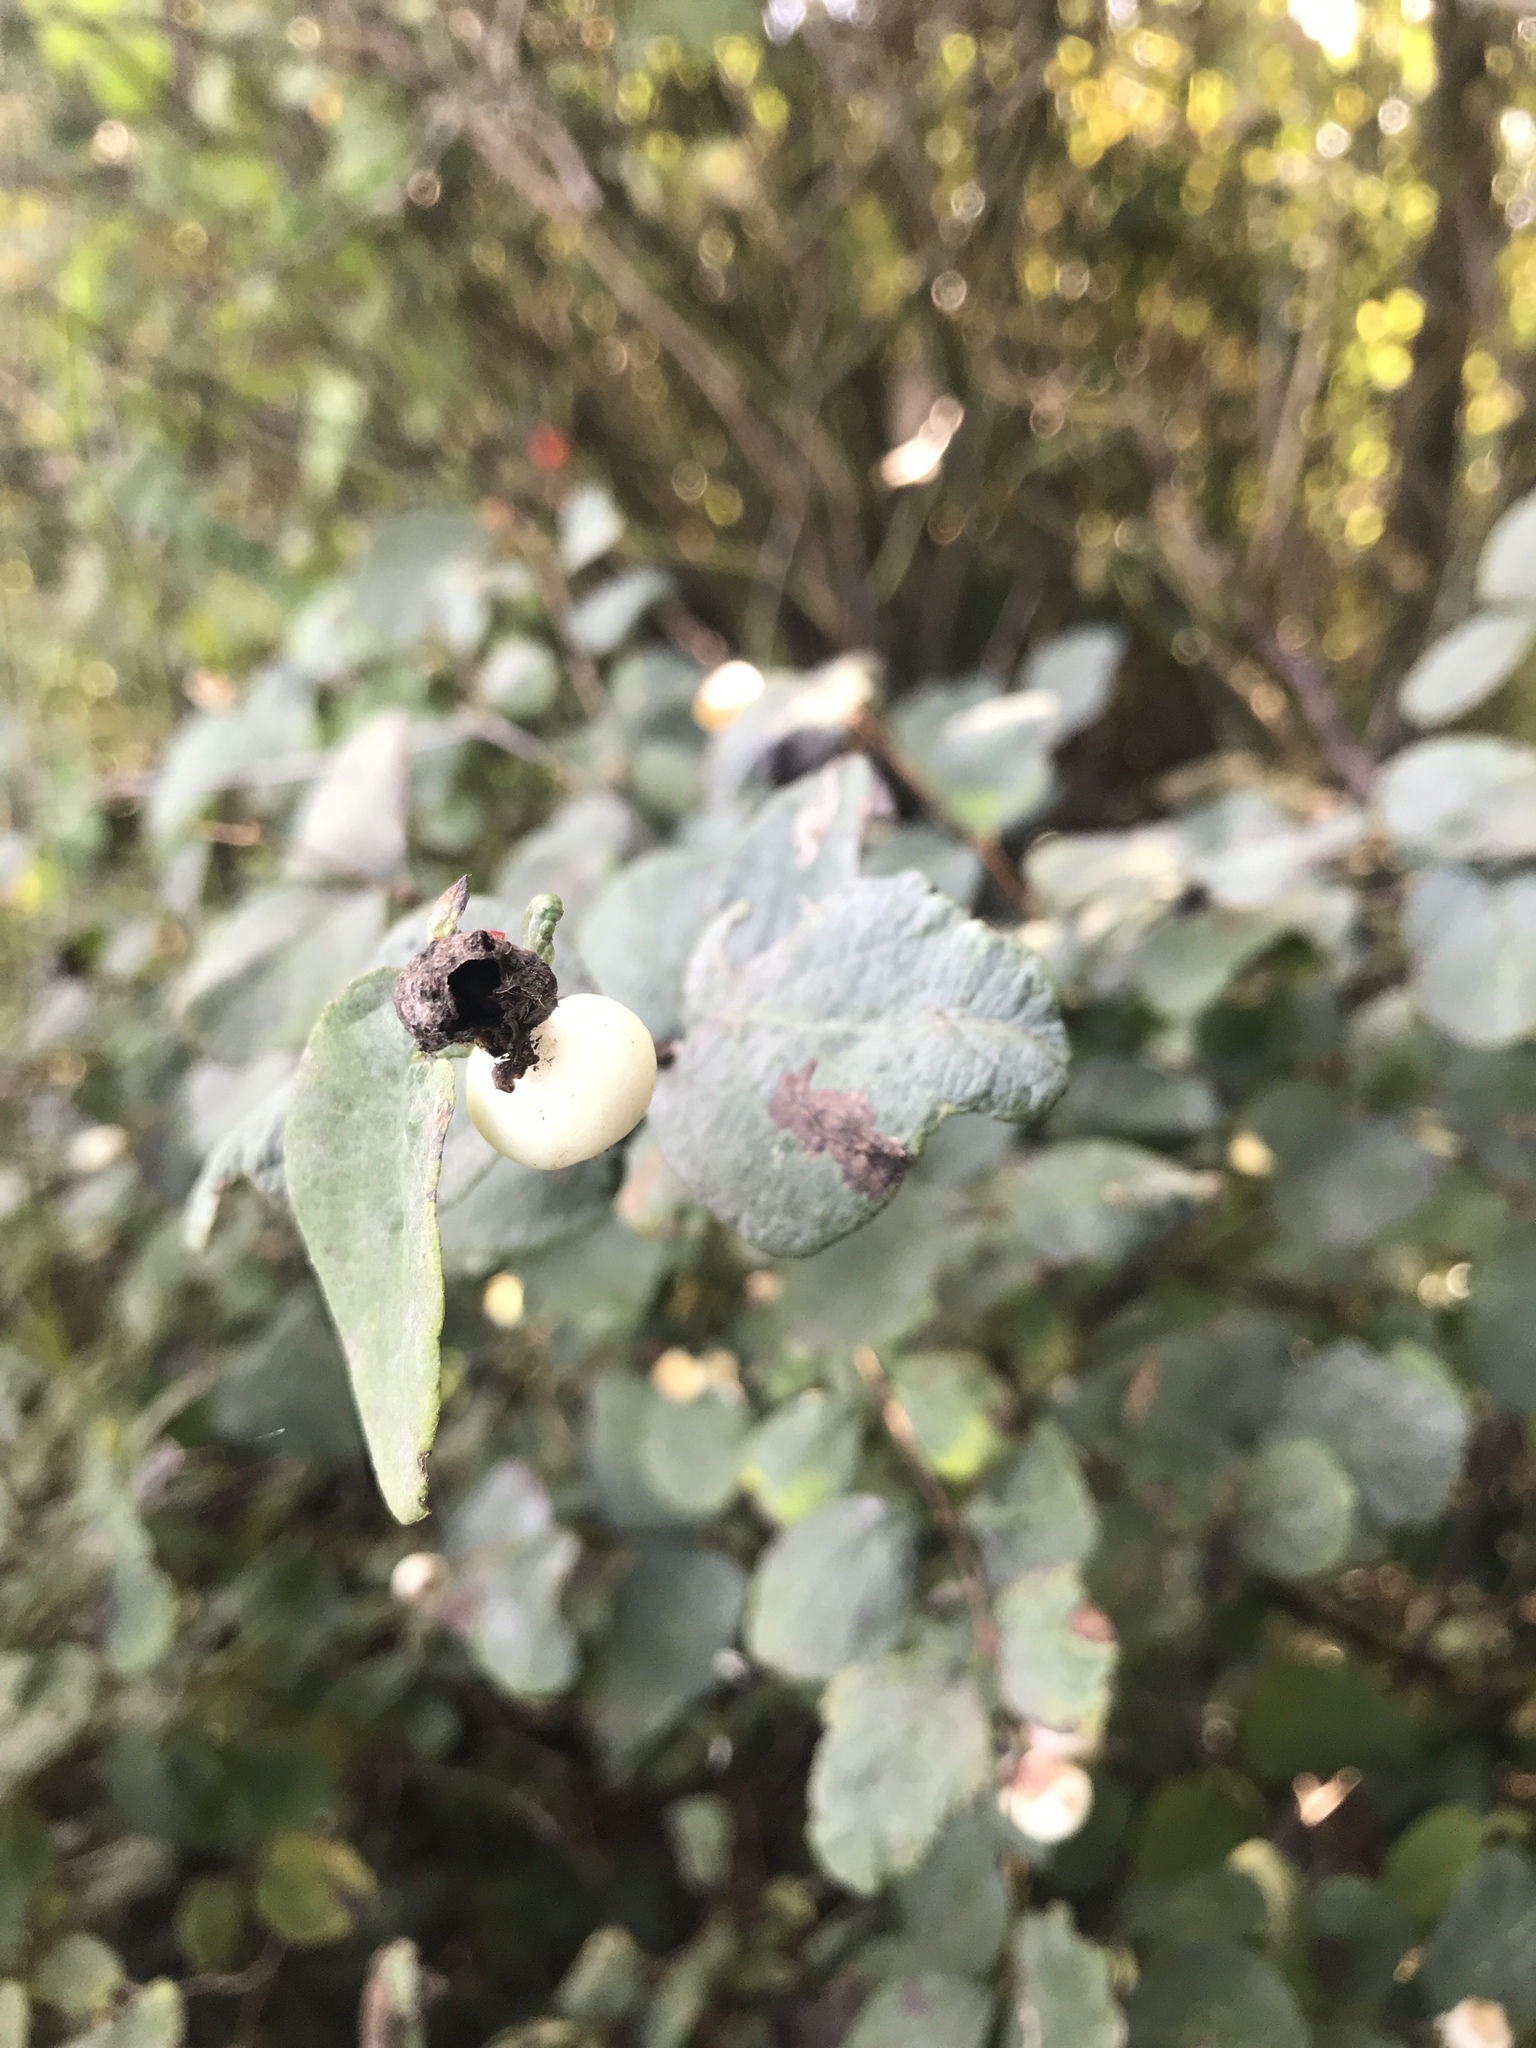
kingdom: Plantae
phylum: Tracheophyta
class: Magnoliopsida
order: Dipsacales
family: Caprifoliaceae
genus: Symphoricarpos
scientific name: Symphoricarpos albus
